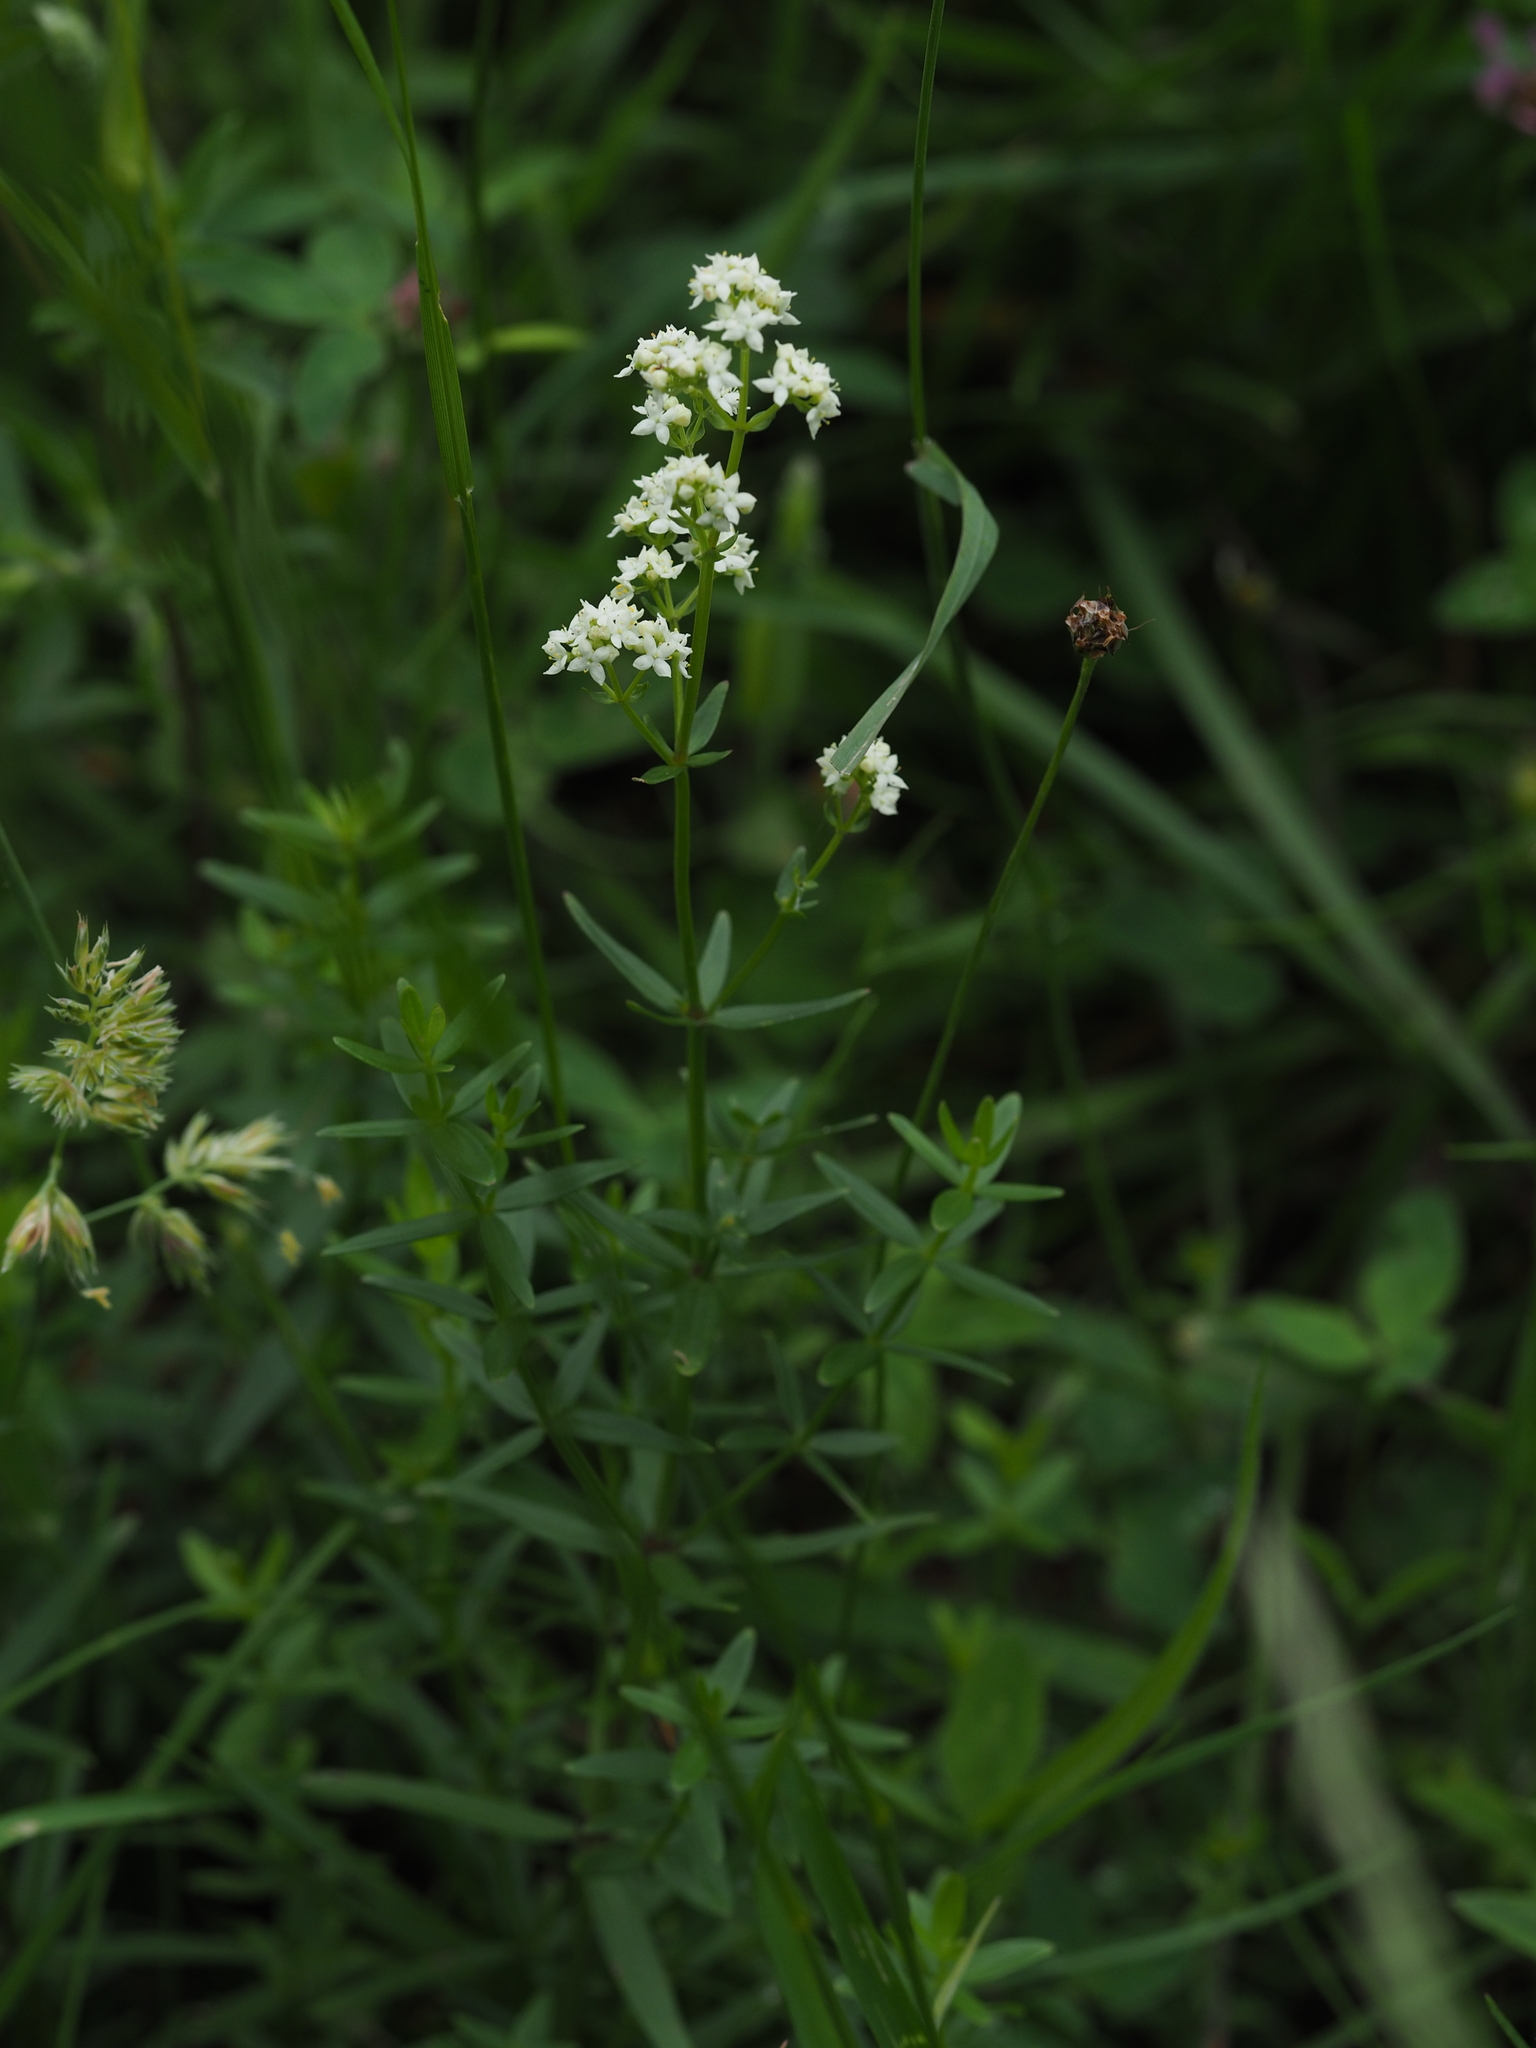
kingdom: Plantae
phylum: Tracheophyta
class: Magnoliopsida
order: Gentianales
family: Rubiaceae
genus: Galium
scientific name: Galium boreale
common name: Northern bedstraw
